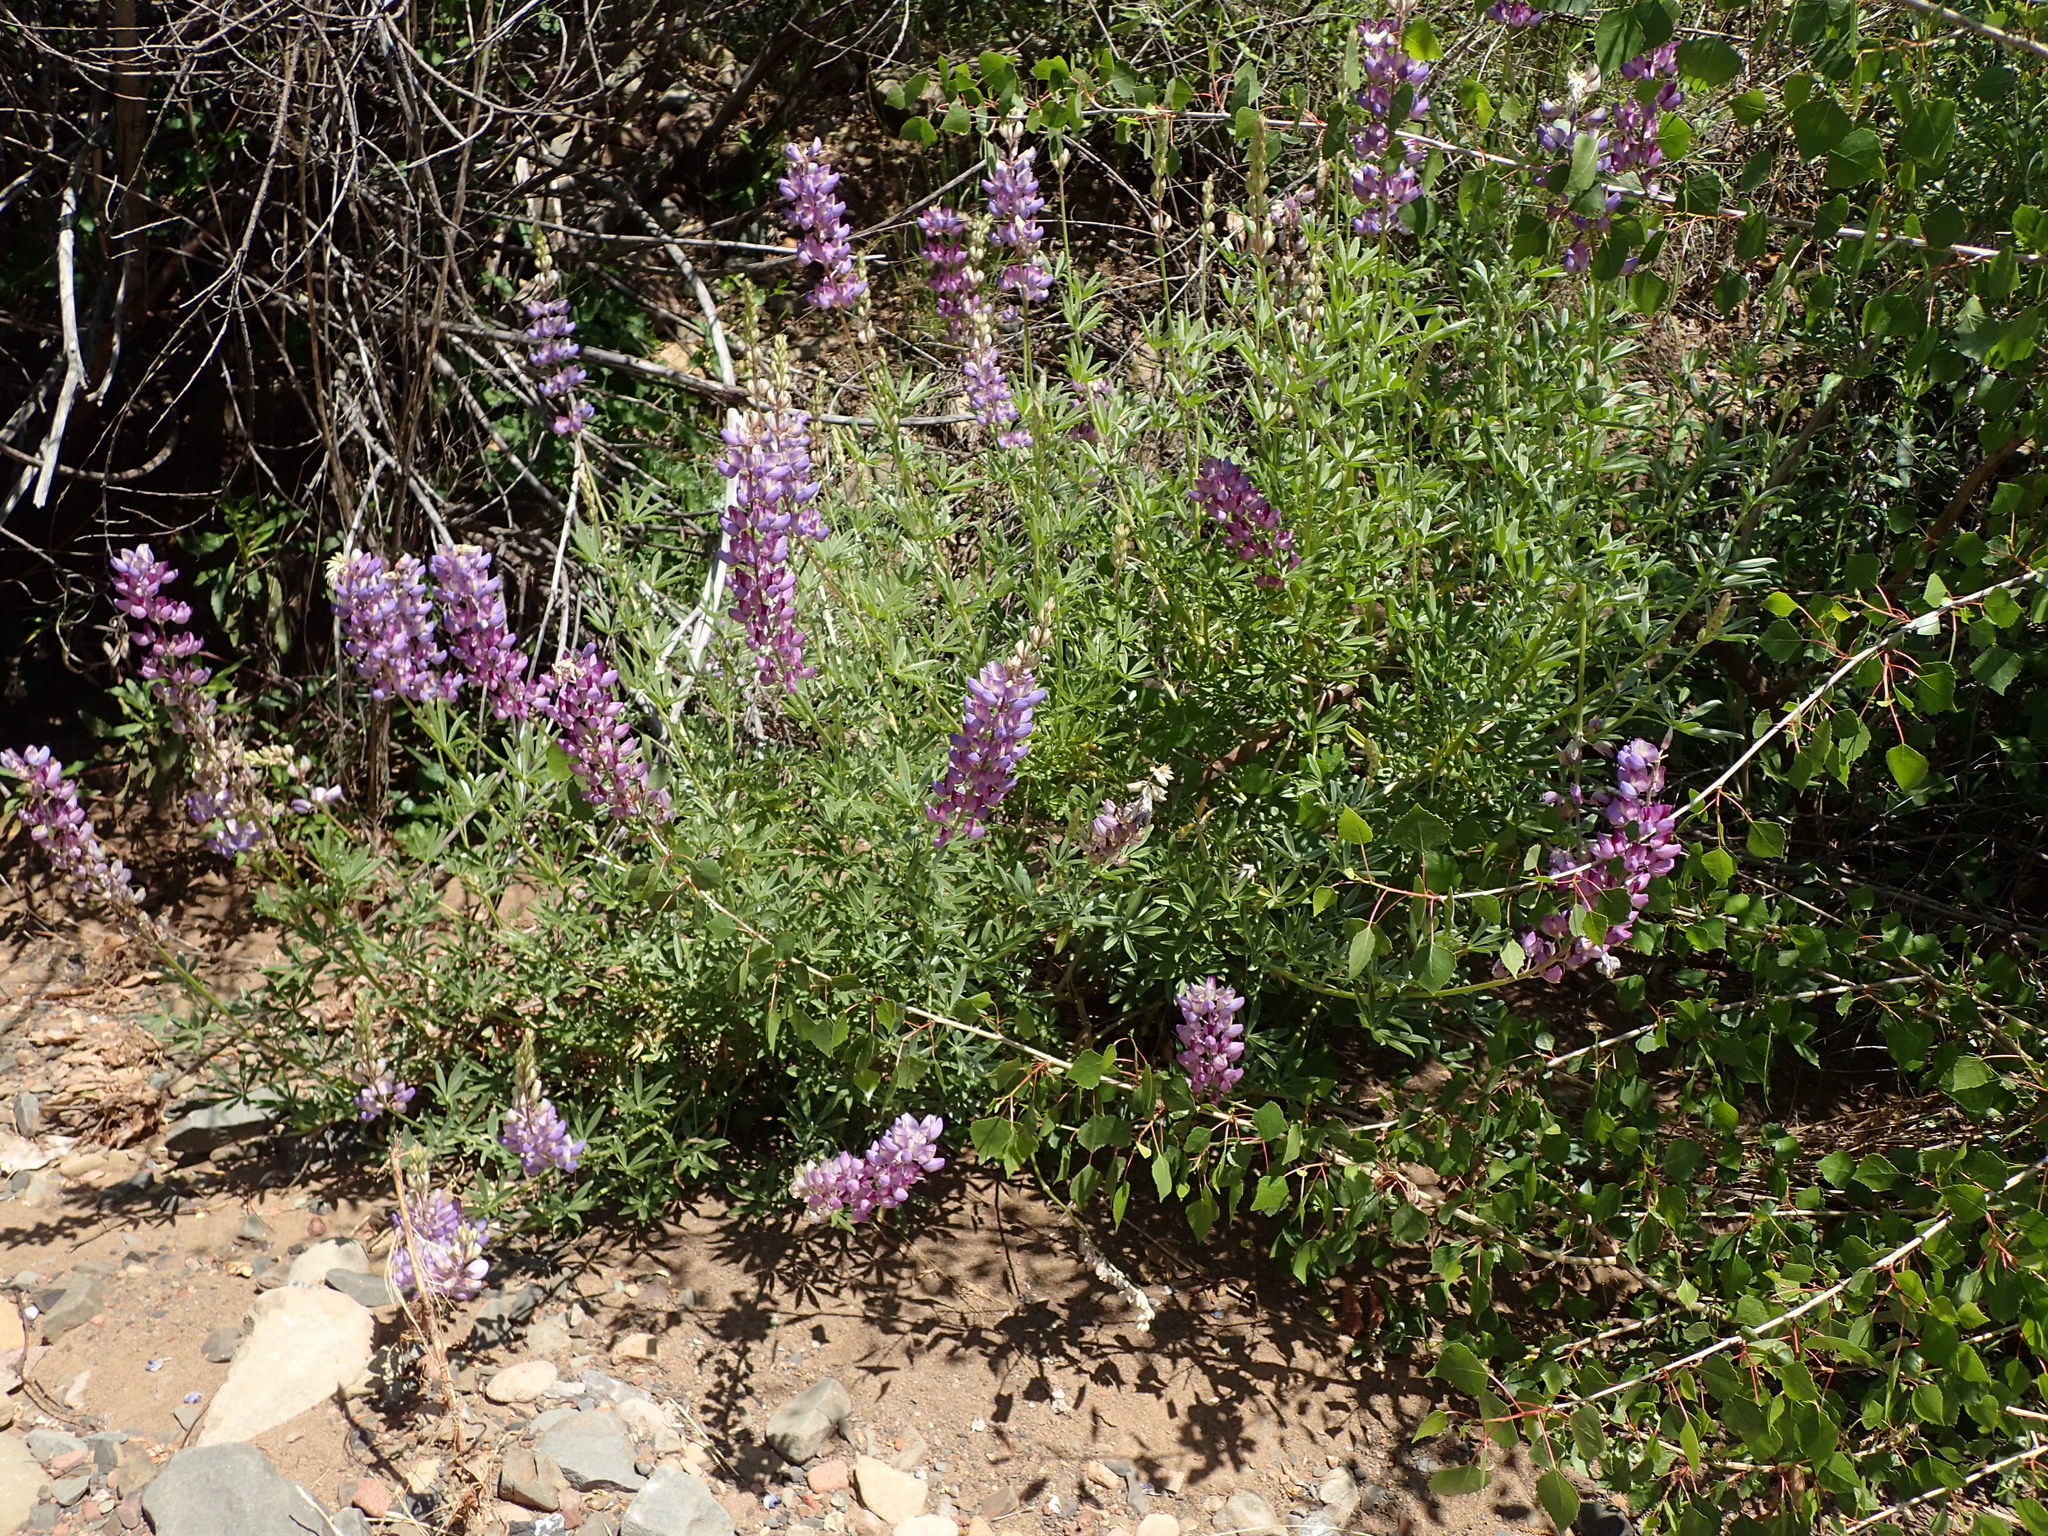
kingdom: Plantae
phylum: Tracheophyta
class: Magnoliopsida
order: Fabales
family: Fabaceae
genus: Lupinus
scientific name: Lupinus albifrons
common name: Foothill lupine
